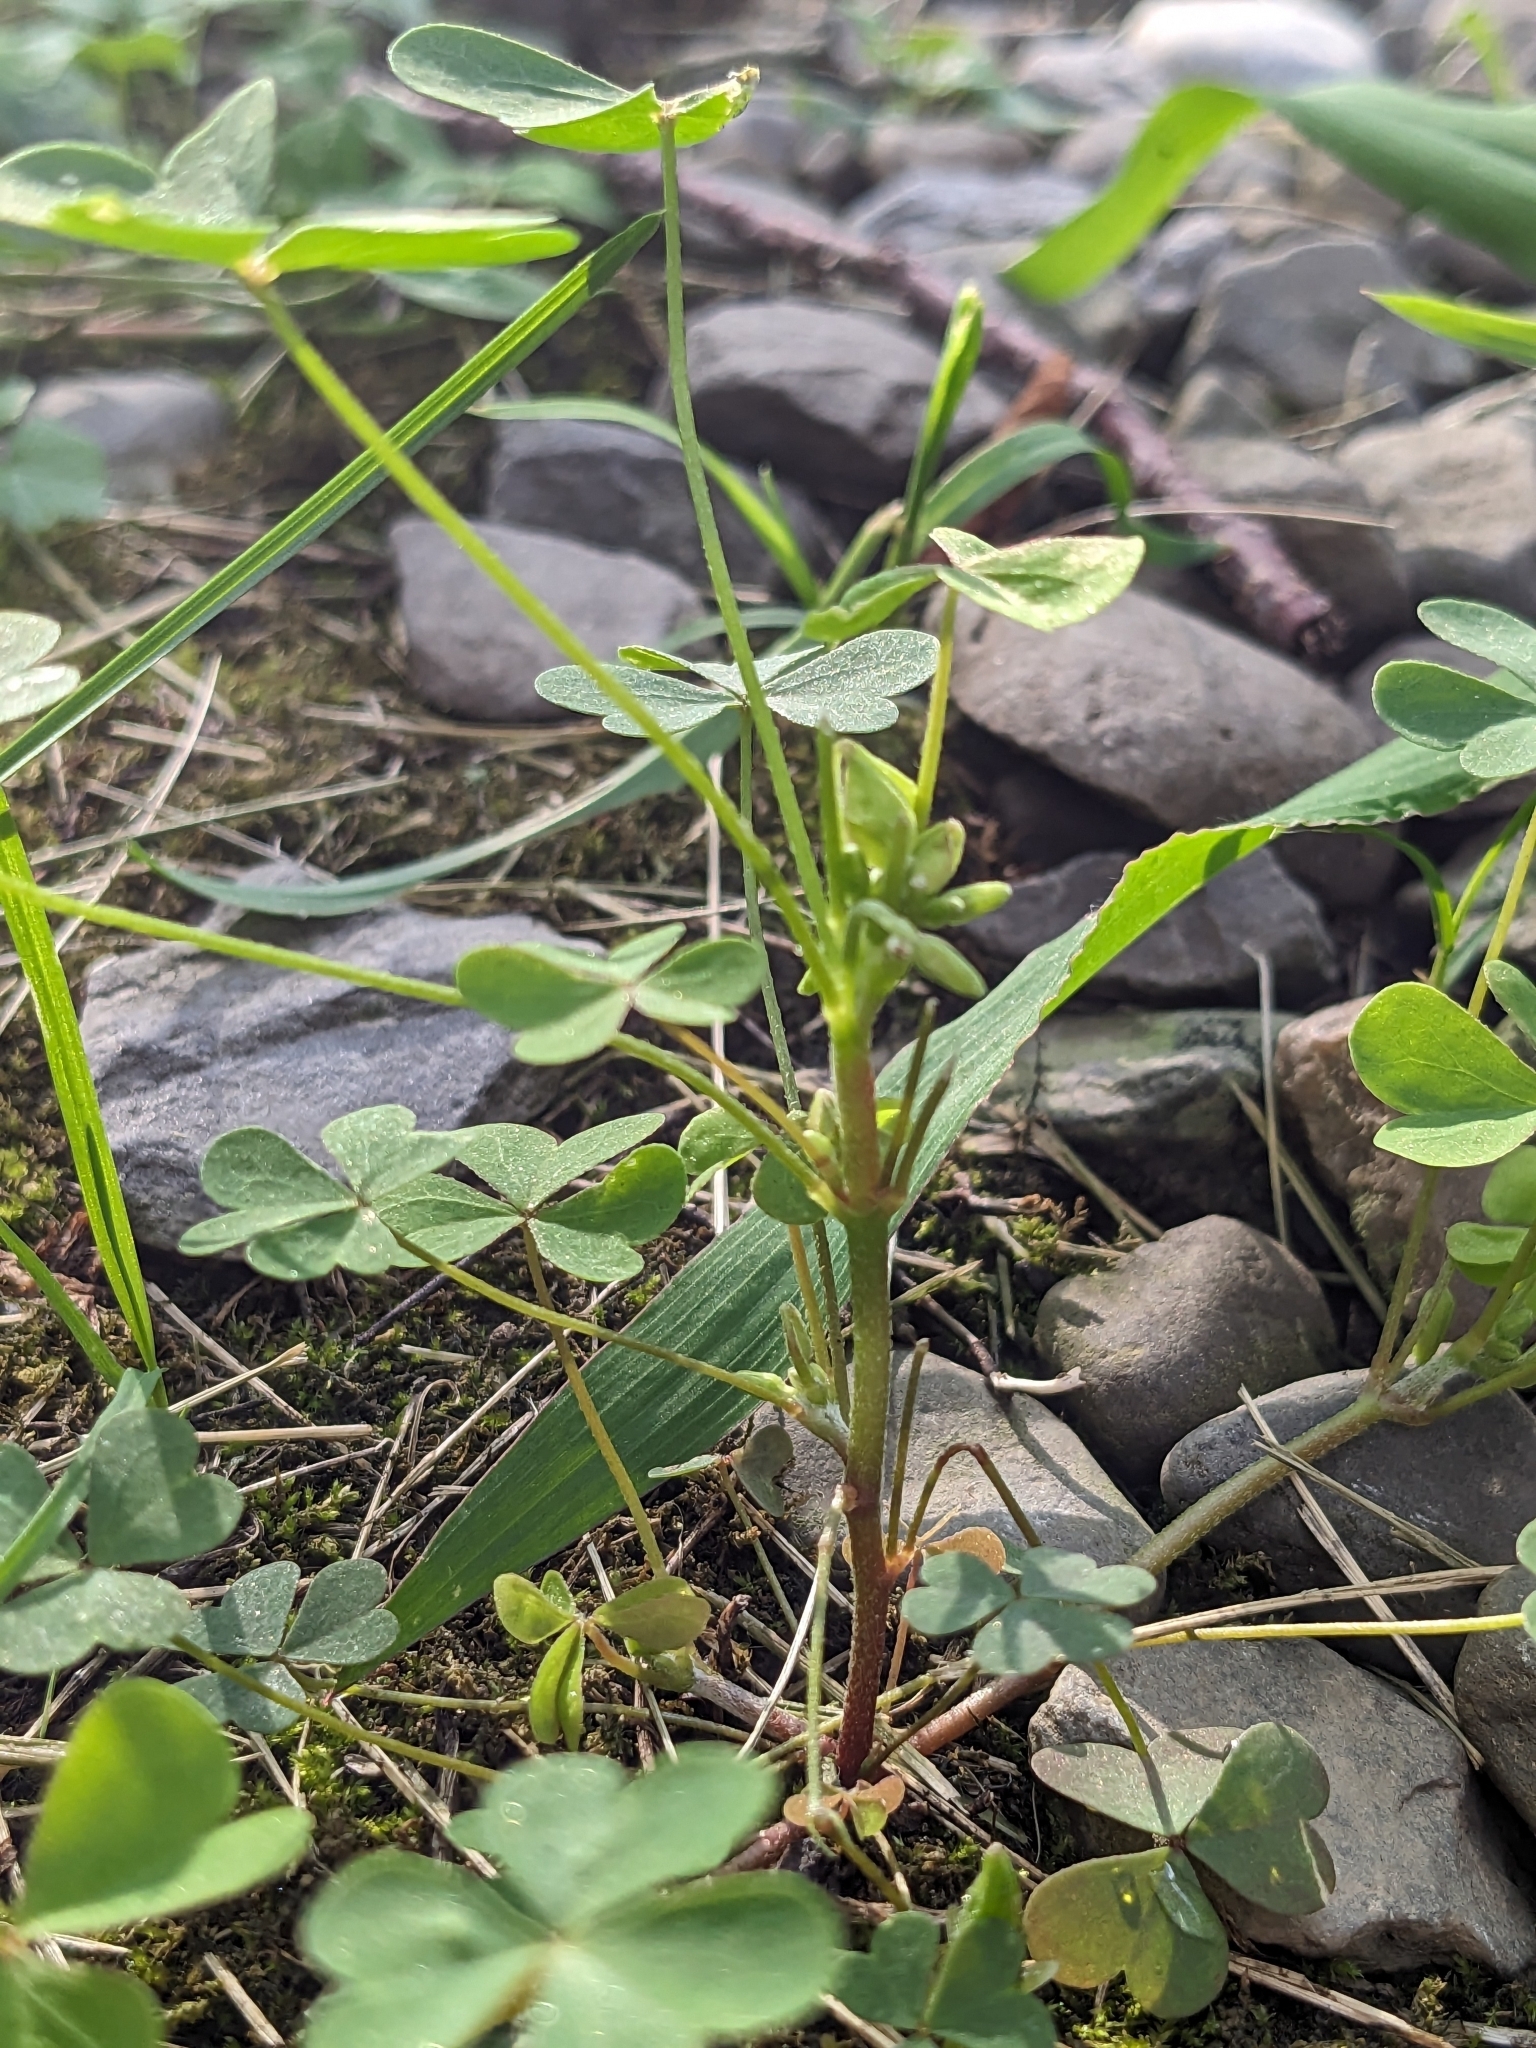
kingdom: Plantae
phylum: Tracheophyta
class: Magnoliopsida
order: Oxalidales
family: Oxalidaceae
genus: Oxalis
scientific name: Oxalis dillenii
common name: Sussex yellow-sorrel
